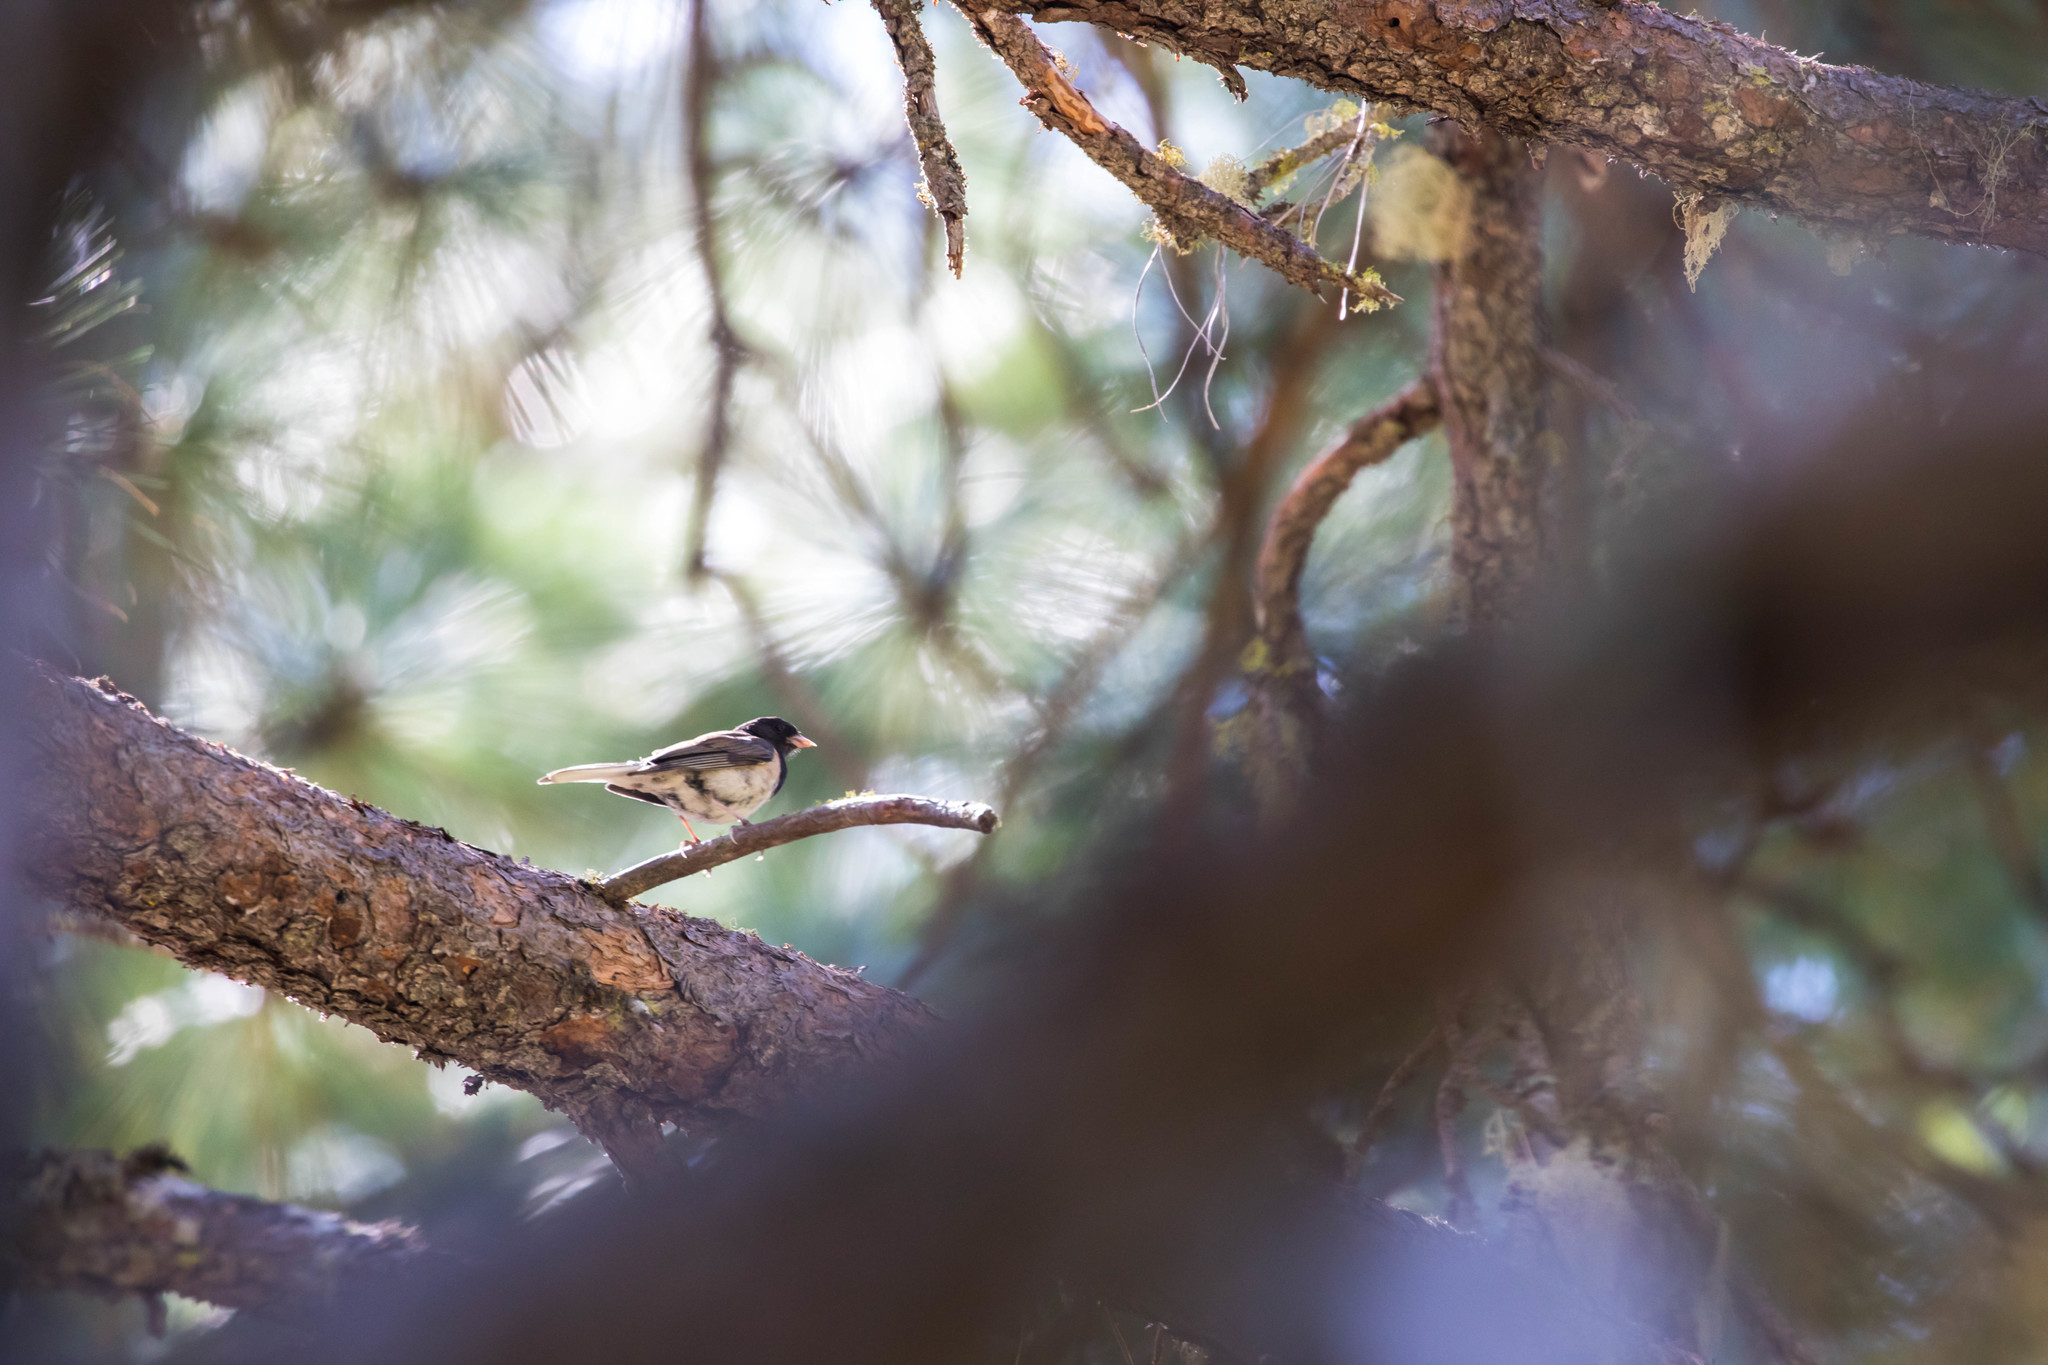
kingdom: Animalia
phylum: Chordata
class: Aves
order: Passeriformes
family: Passerellidae
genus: Junco
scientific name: Junco hyemalis
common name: Dark-eyed junco
